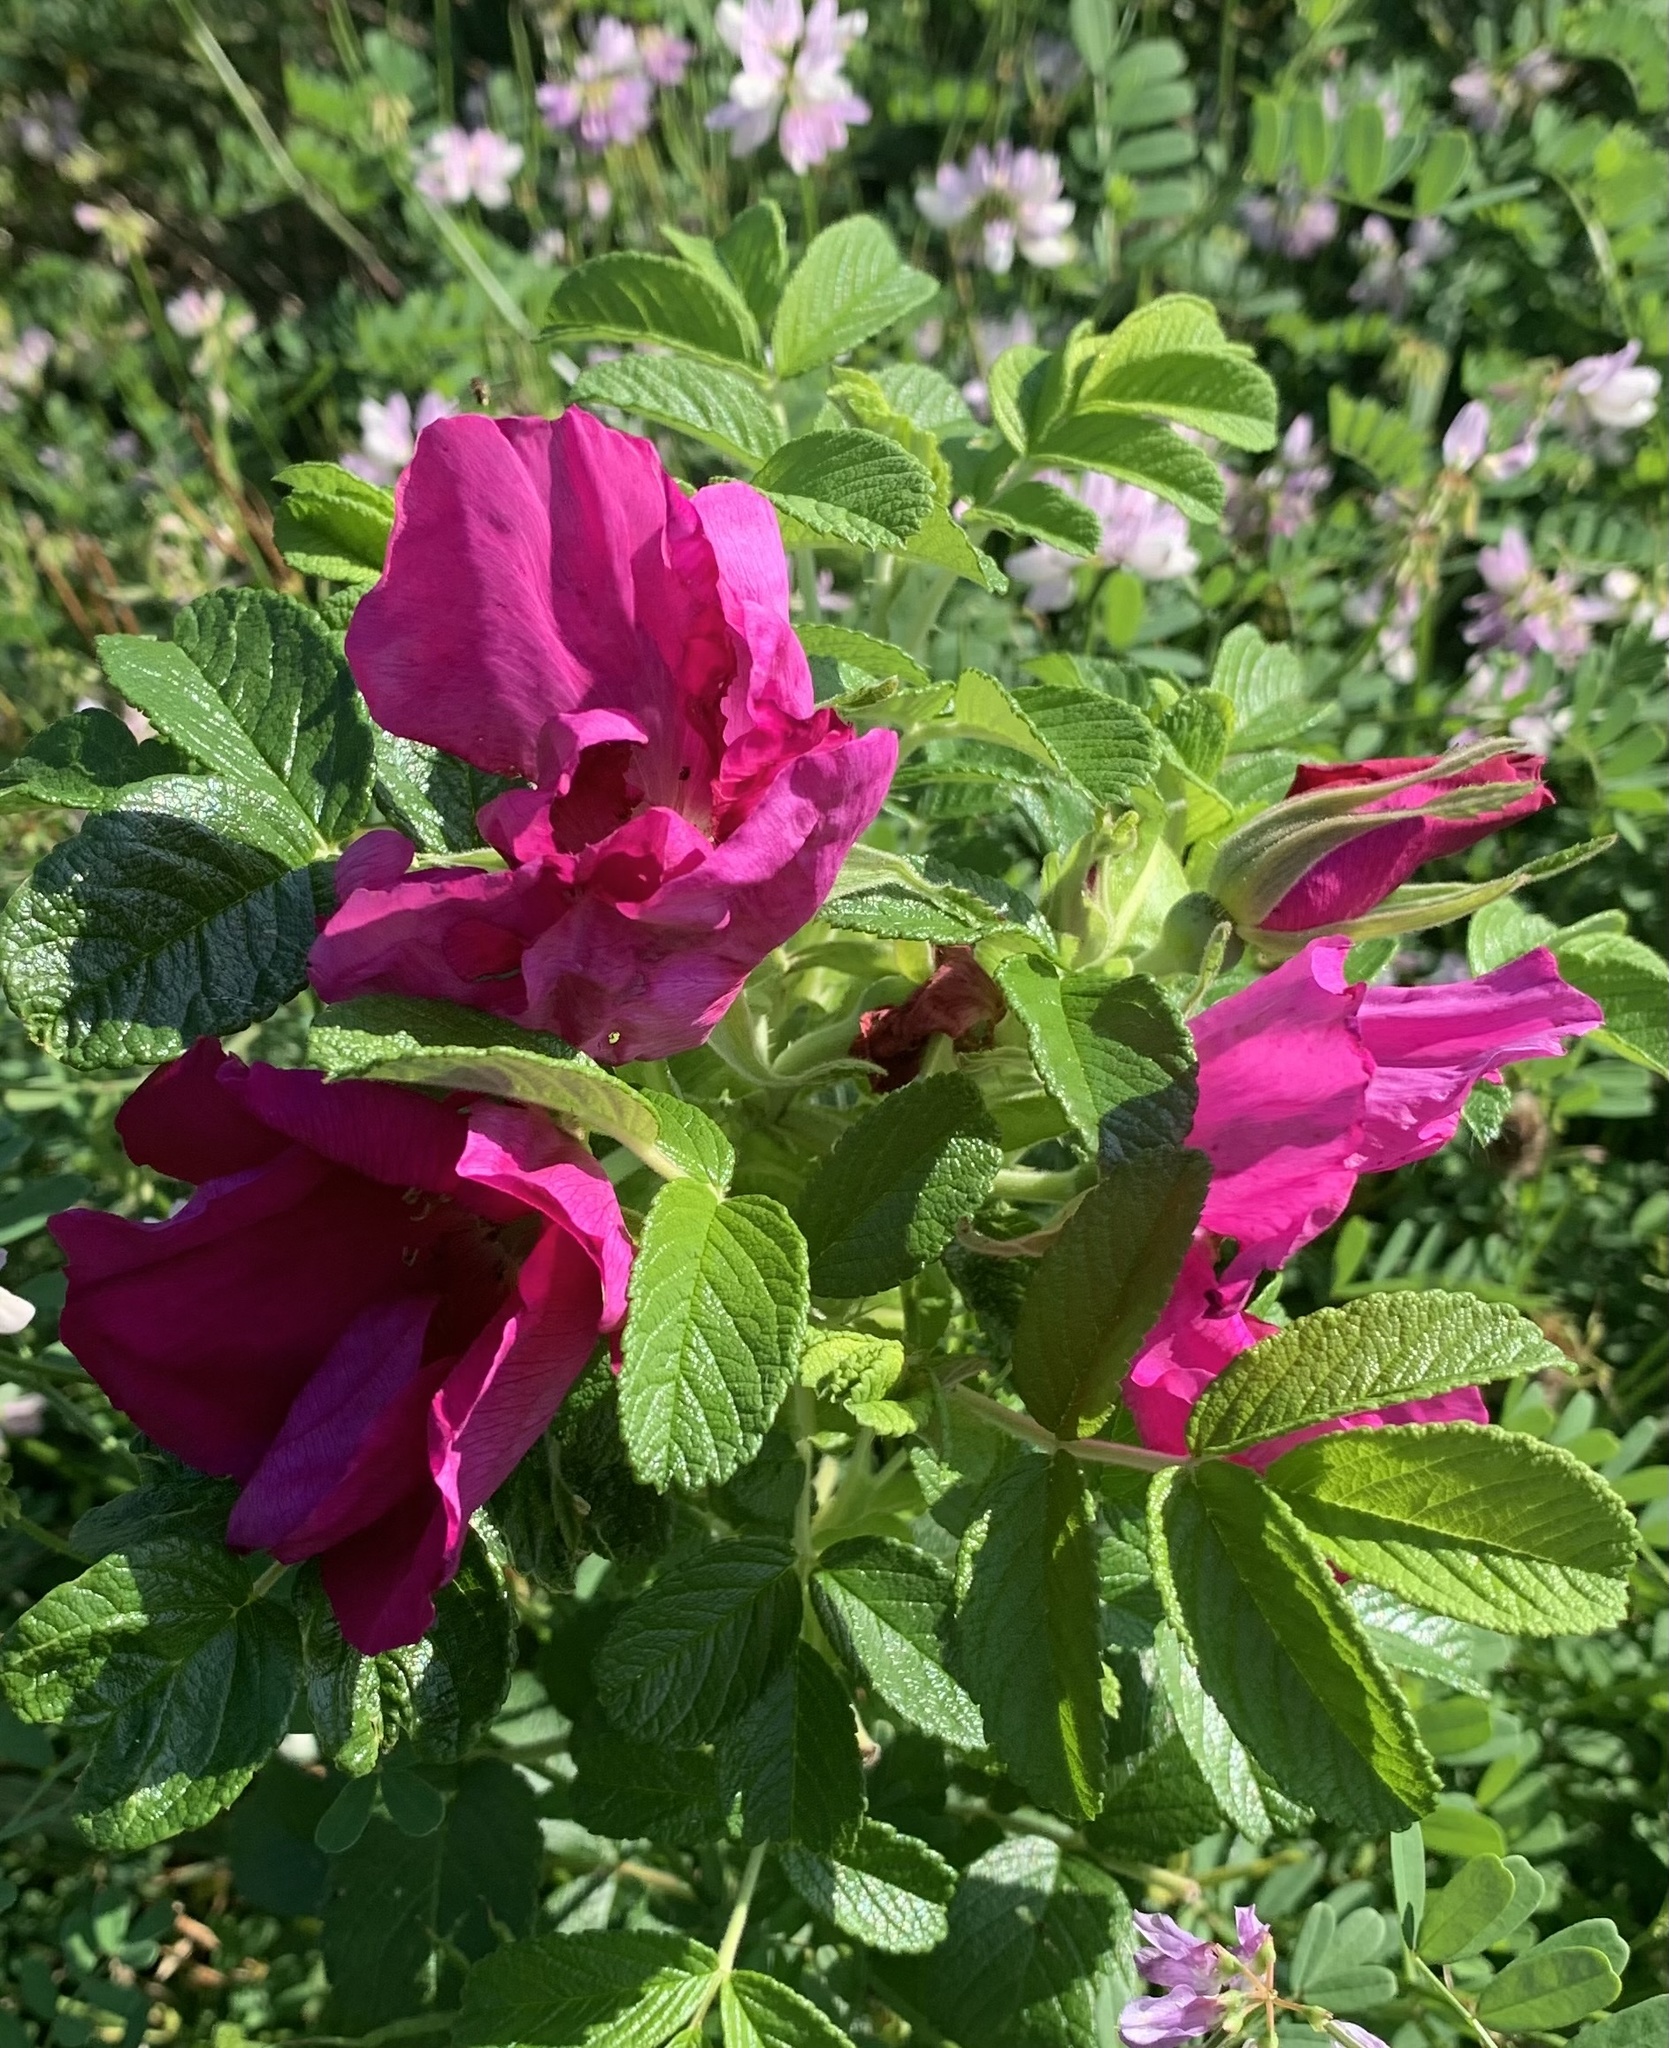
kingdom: Plantae
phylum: Tracheophyta
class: Magnoliopsida
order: Rosales
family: Rosaceae
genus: Rosa
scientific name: Rosa rugosa
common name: Japanese rose
